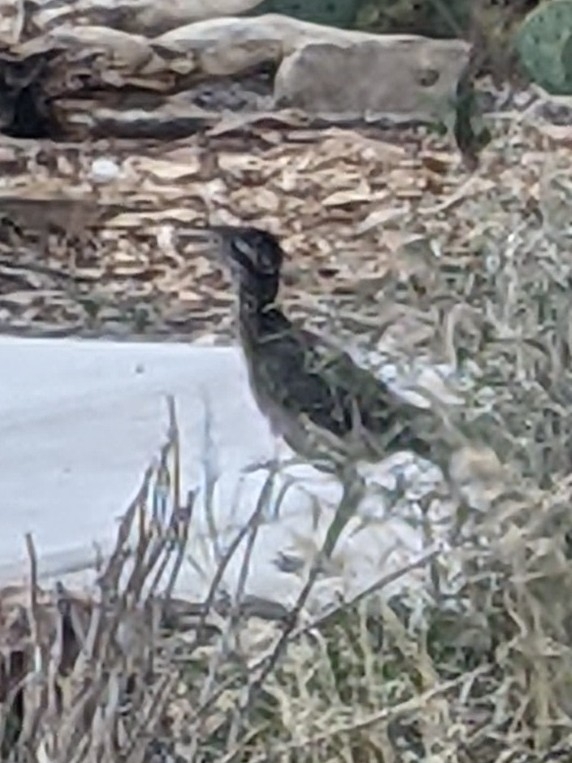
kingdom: Animalia
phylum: Chordata
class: Aves
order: Cuculiformes
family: Cuculidae
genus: Geococcyx
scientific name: Geococcyx californianus
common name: Greater roadrunner
